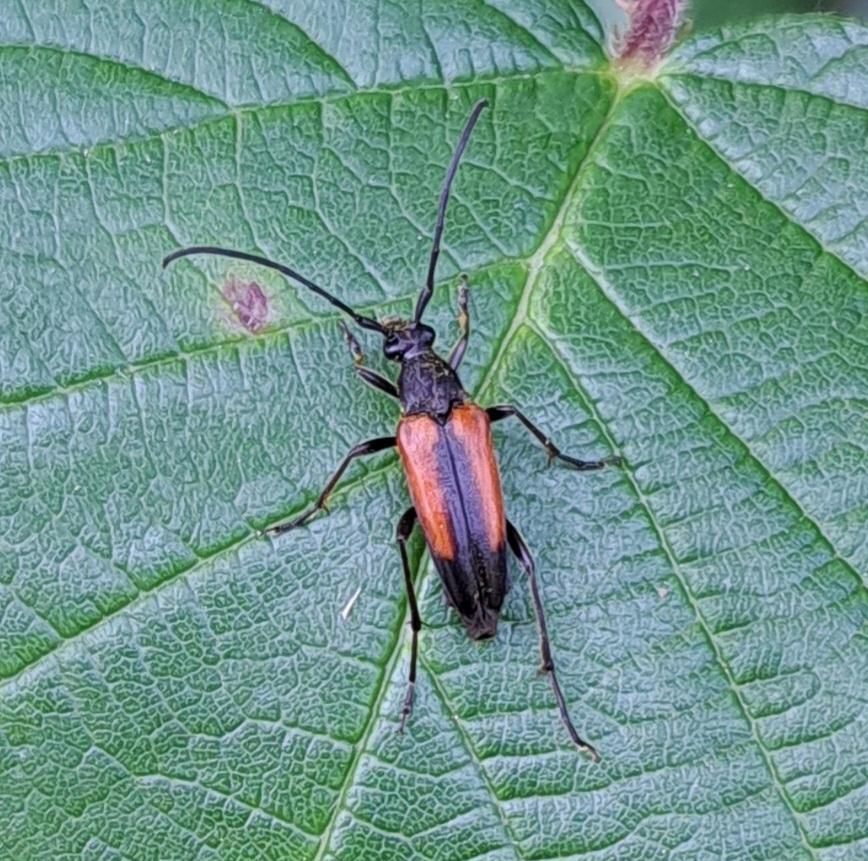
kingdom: Animalia
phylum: Arthropoda
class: Insecta
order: Coleoptera
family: Cerambycidae
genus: Stenurella
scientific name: Stenurella melanura
